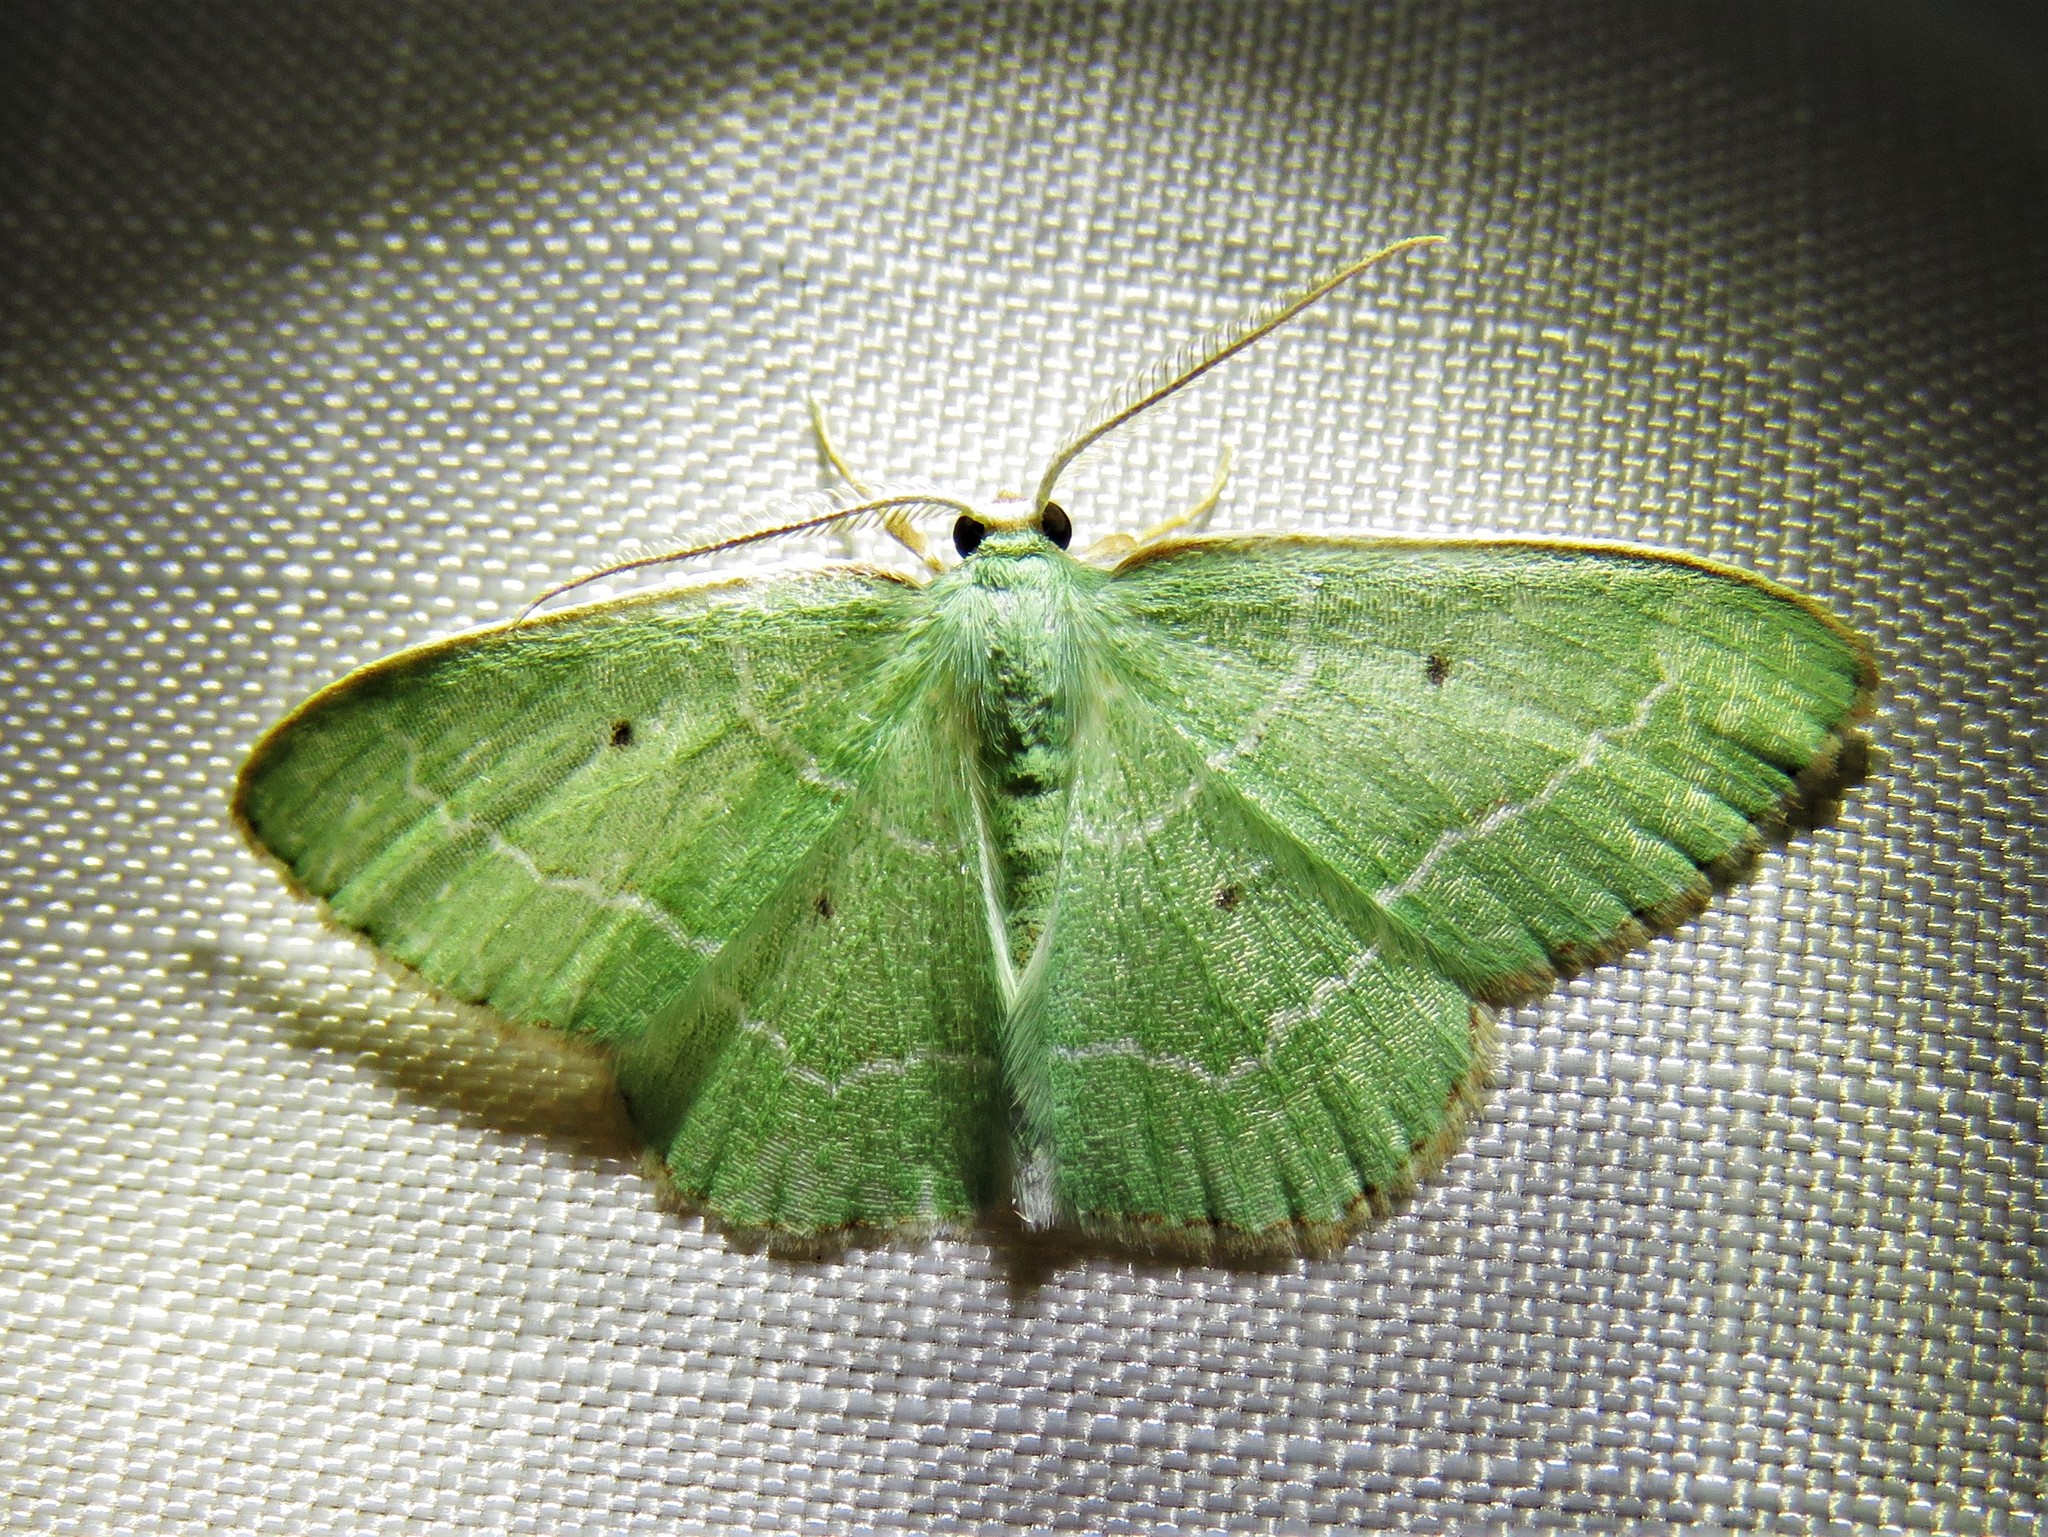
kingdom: Animalia
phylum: Arthropoda
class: Insecta
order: Lepidoptera
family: Geometridae
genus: Nemoria
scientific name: Nemoria elfa
